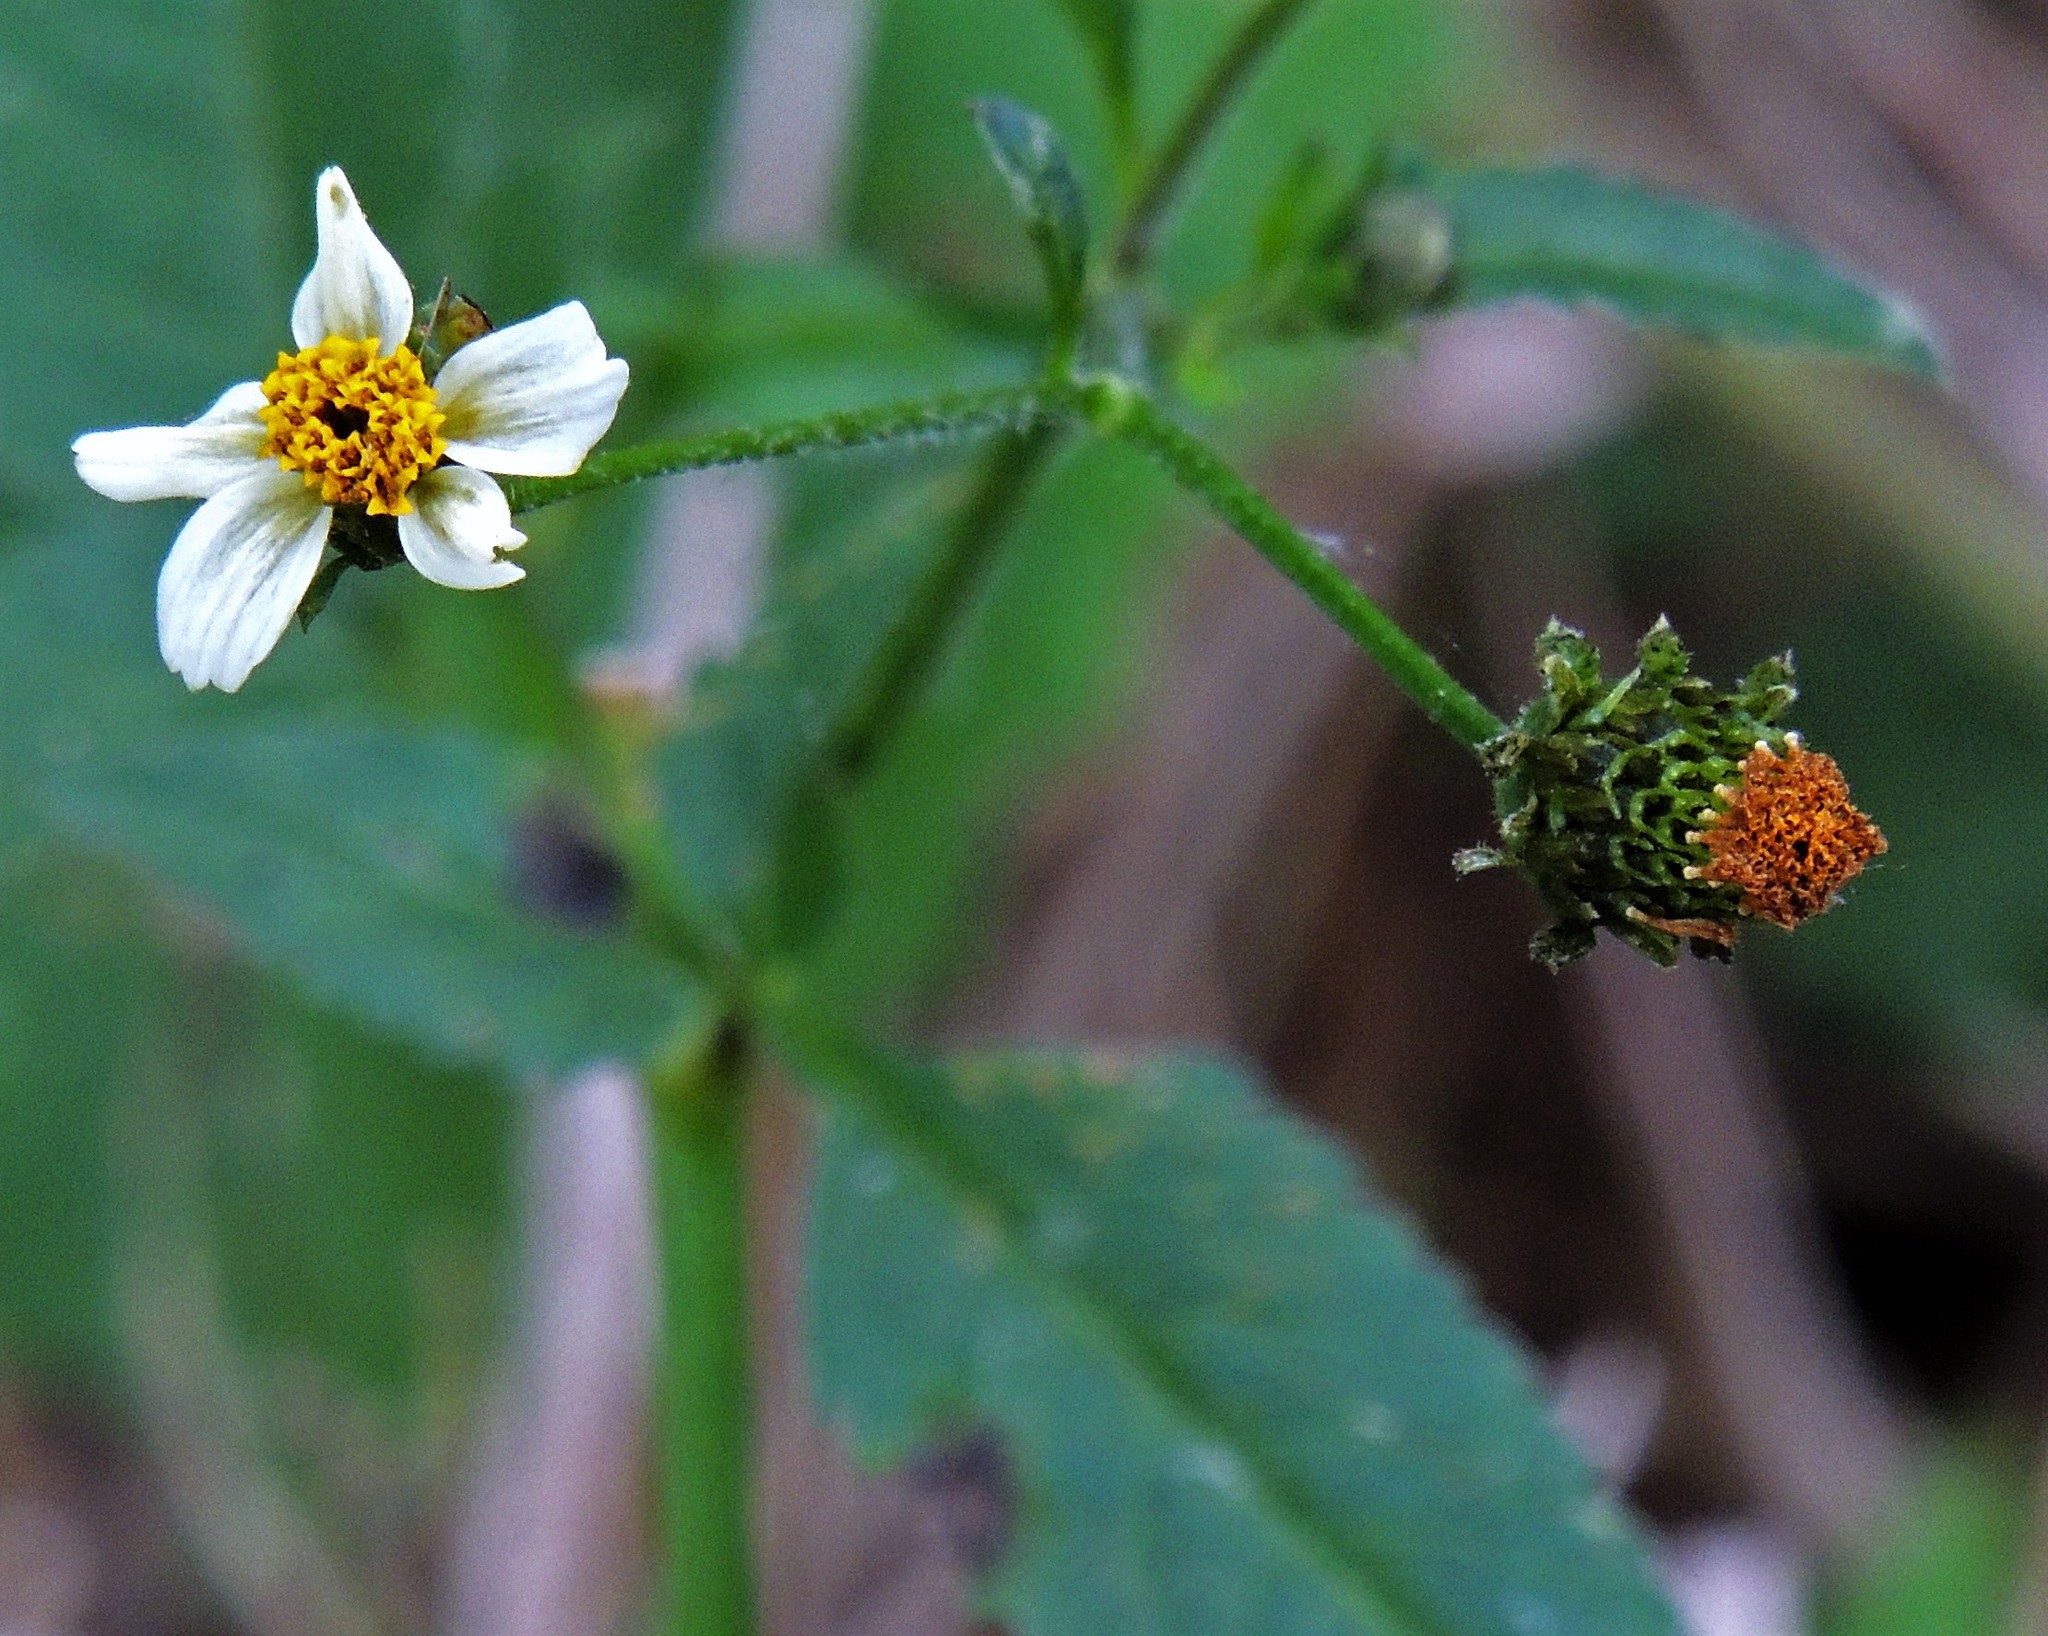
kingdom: Plantae
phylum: Tracheophyta
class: Magnoliopsida
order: Asterales
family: Asteraceae
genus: Bidens
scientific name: Bidens pilosa
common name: Black-jack
